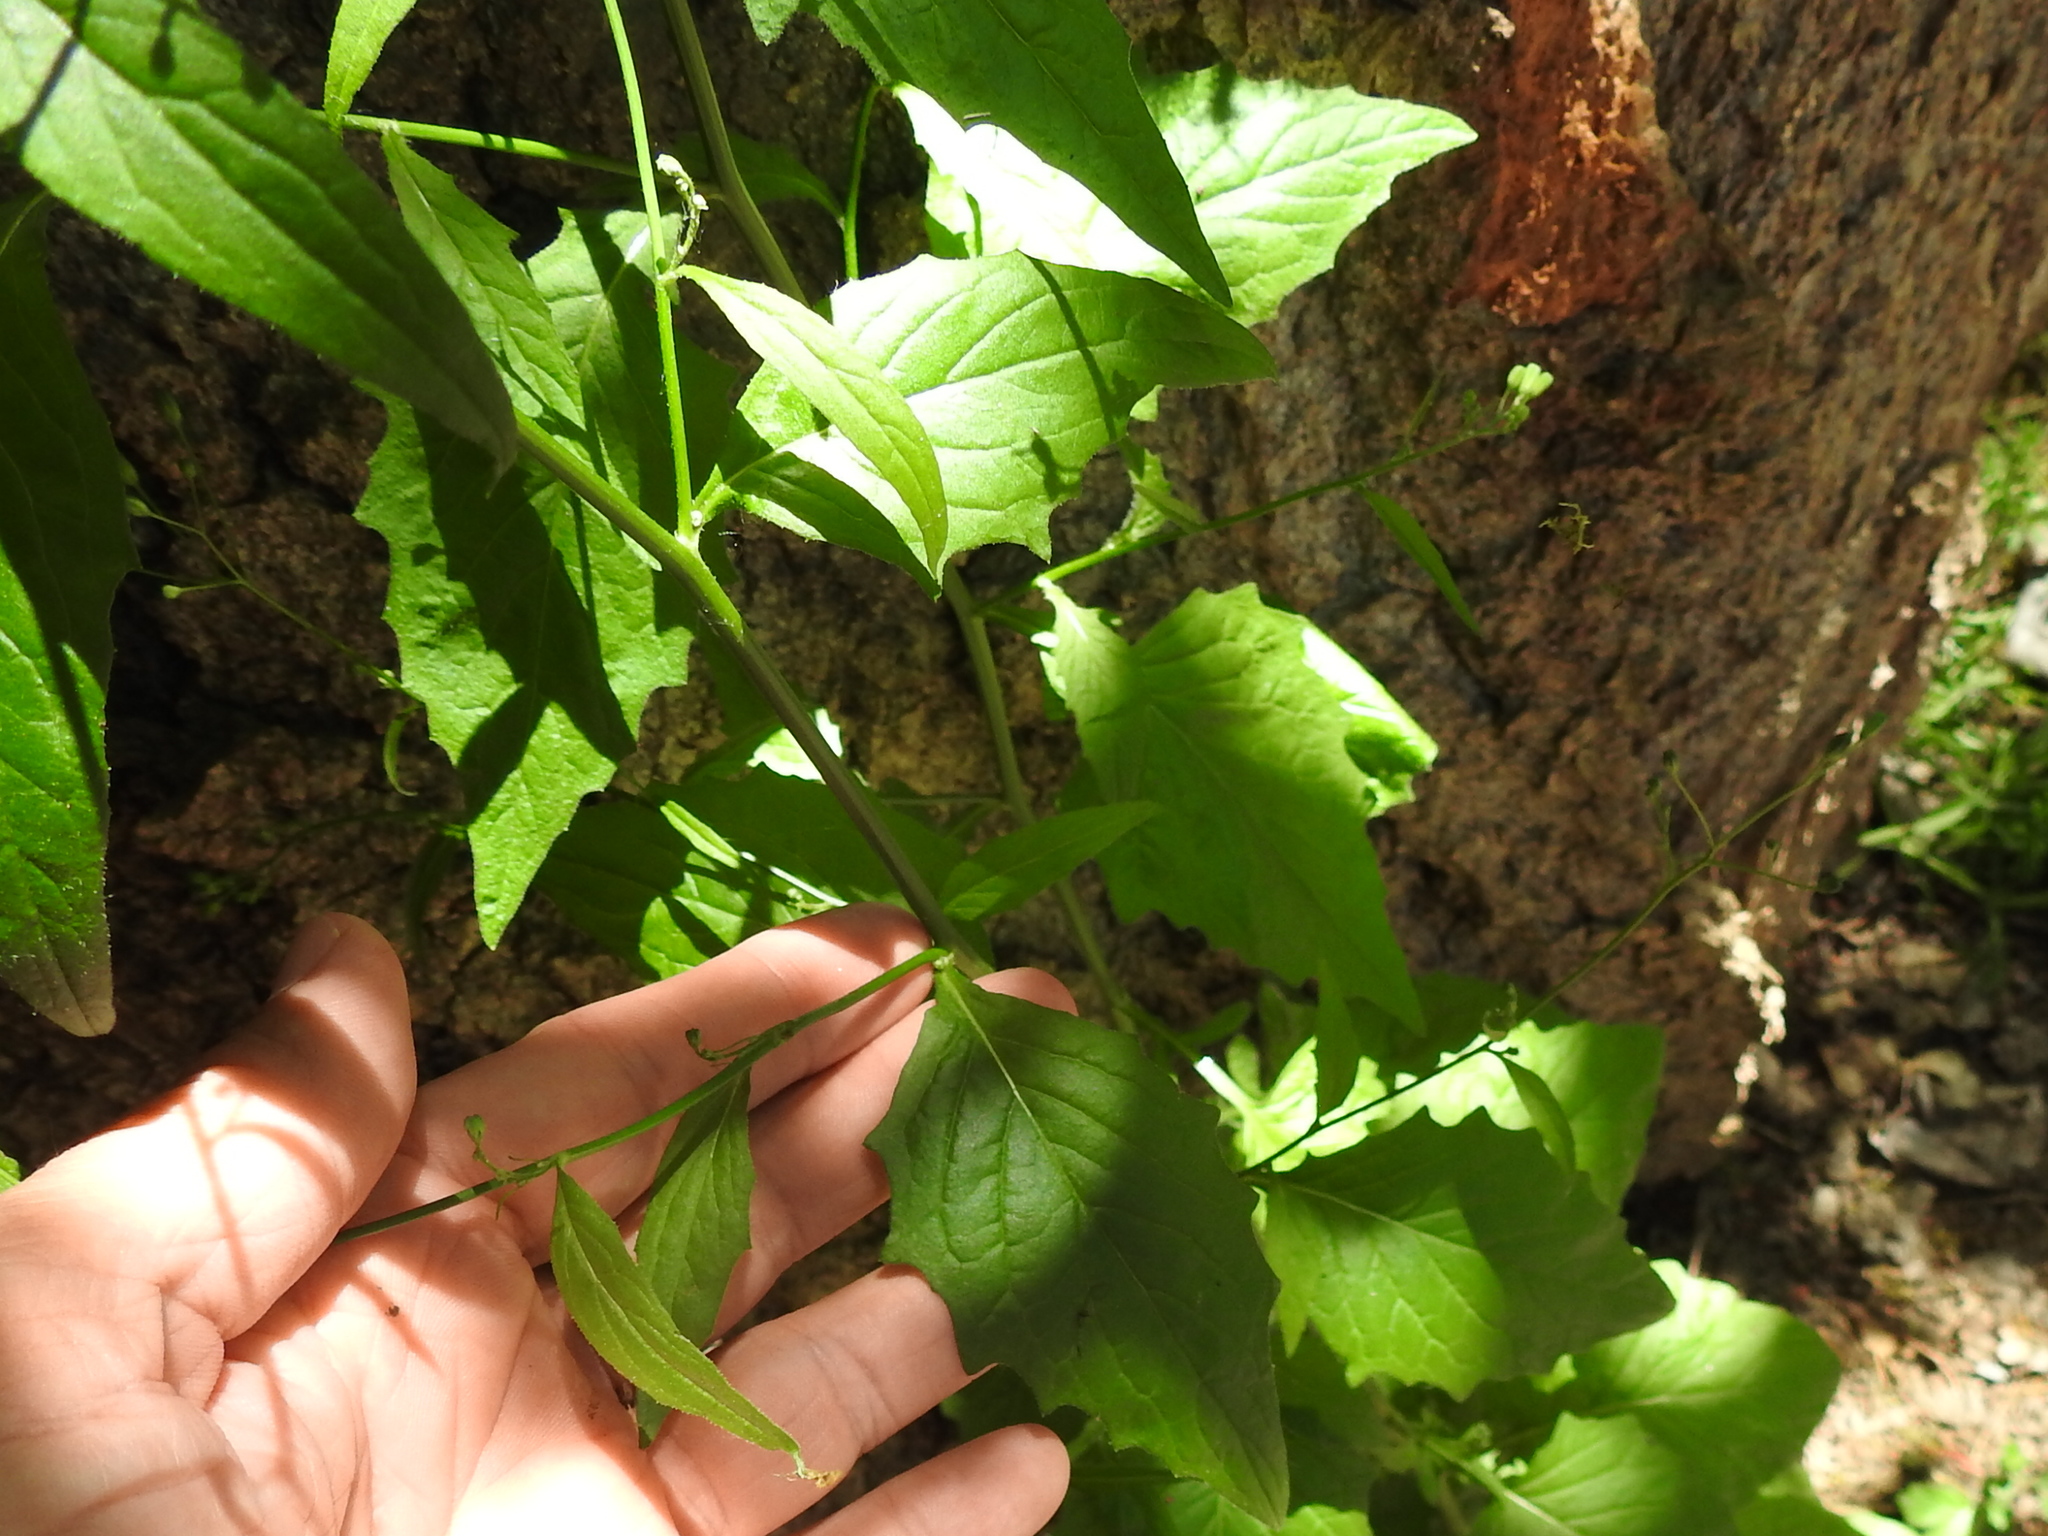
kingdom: Plantae
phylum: Tracheophyta
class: Magnoliopsida
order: Asterales
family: Asteraceae
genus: Lapsana
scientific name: Lapsana communis
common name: Nipplewort
